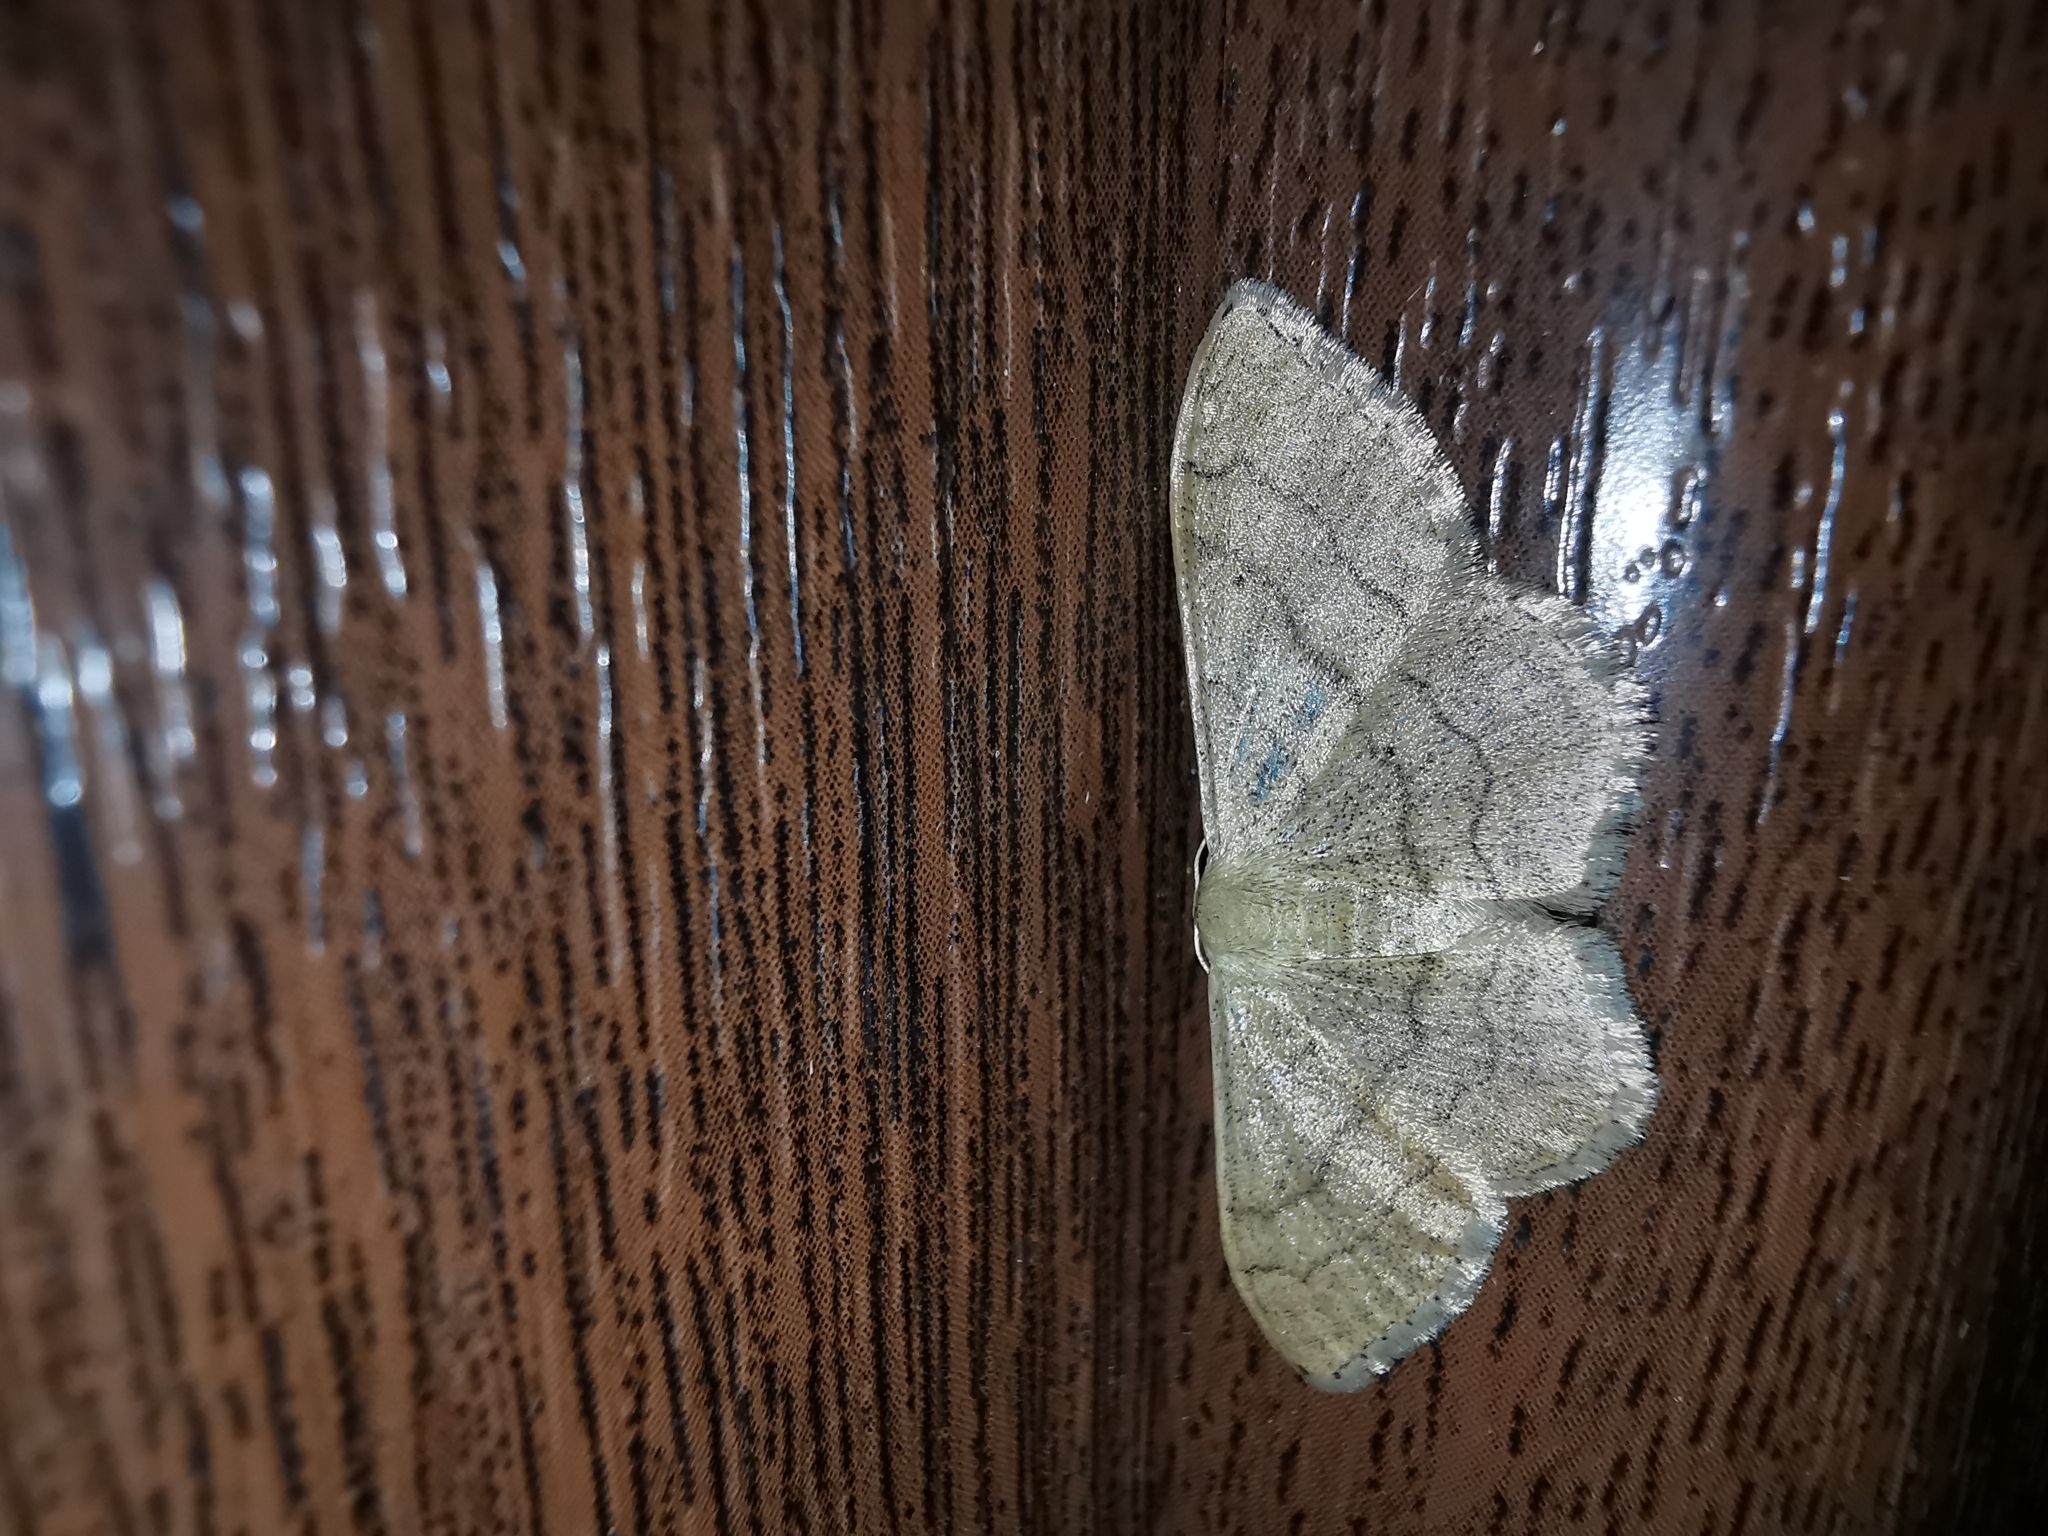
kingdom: Animalia
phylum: Arthropoda
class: Insecta
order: Lepidoptera
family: Geometridae
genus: Idaea
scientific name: Idaea aversata
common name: Riband wave
